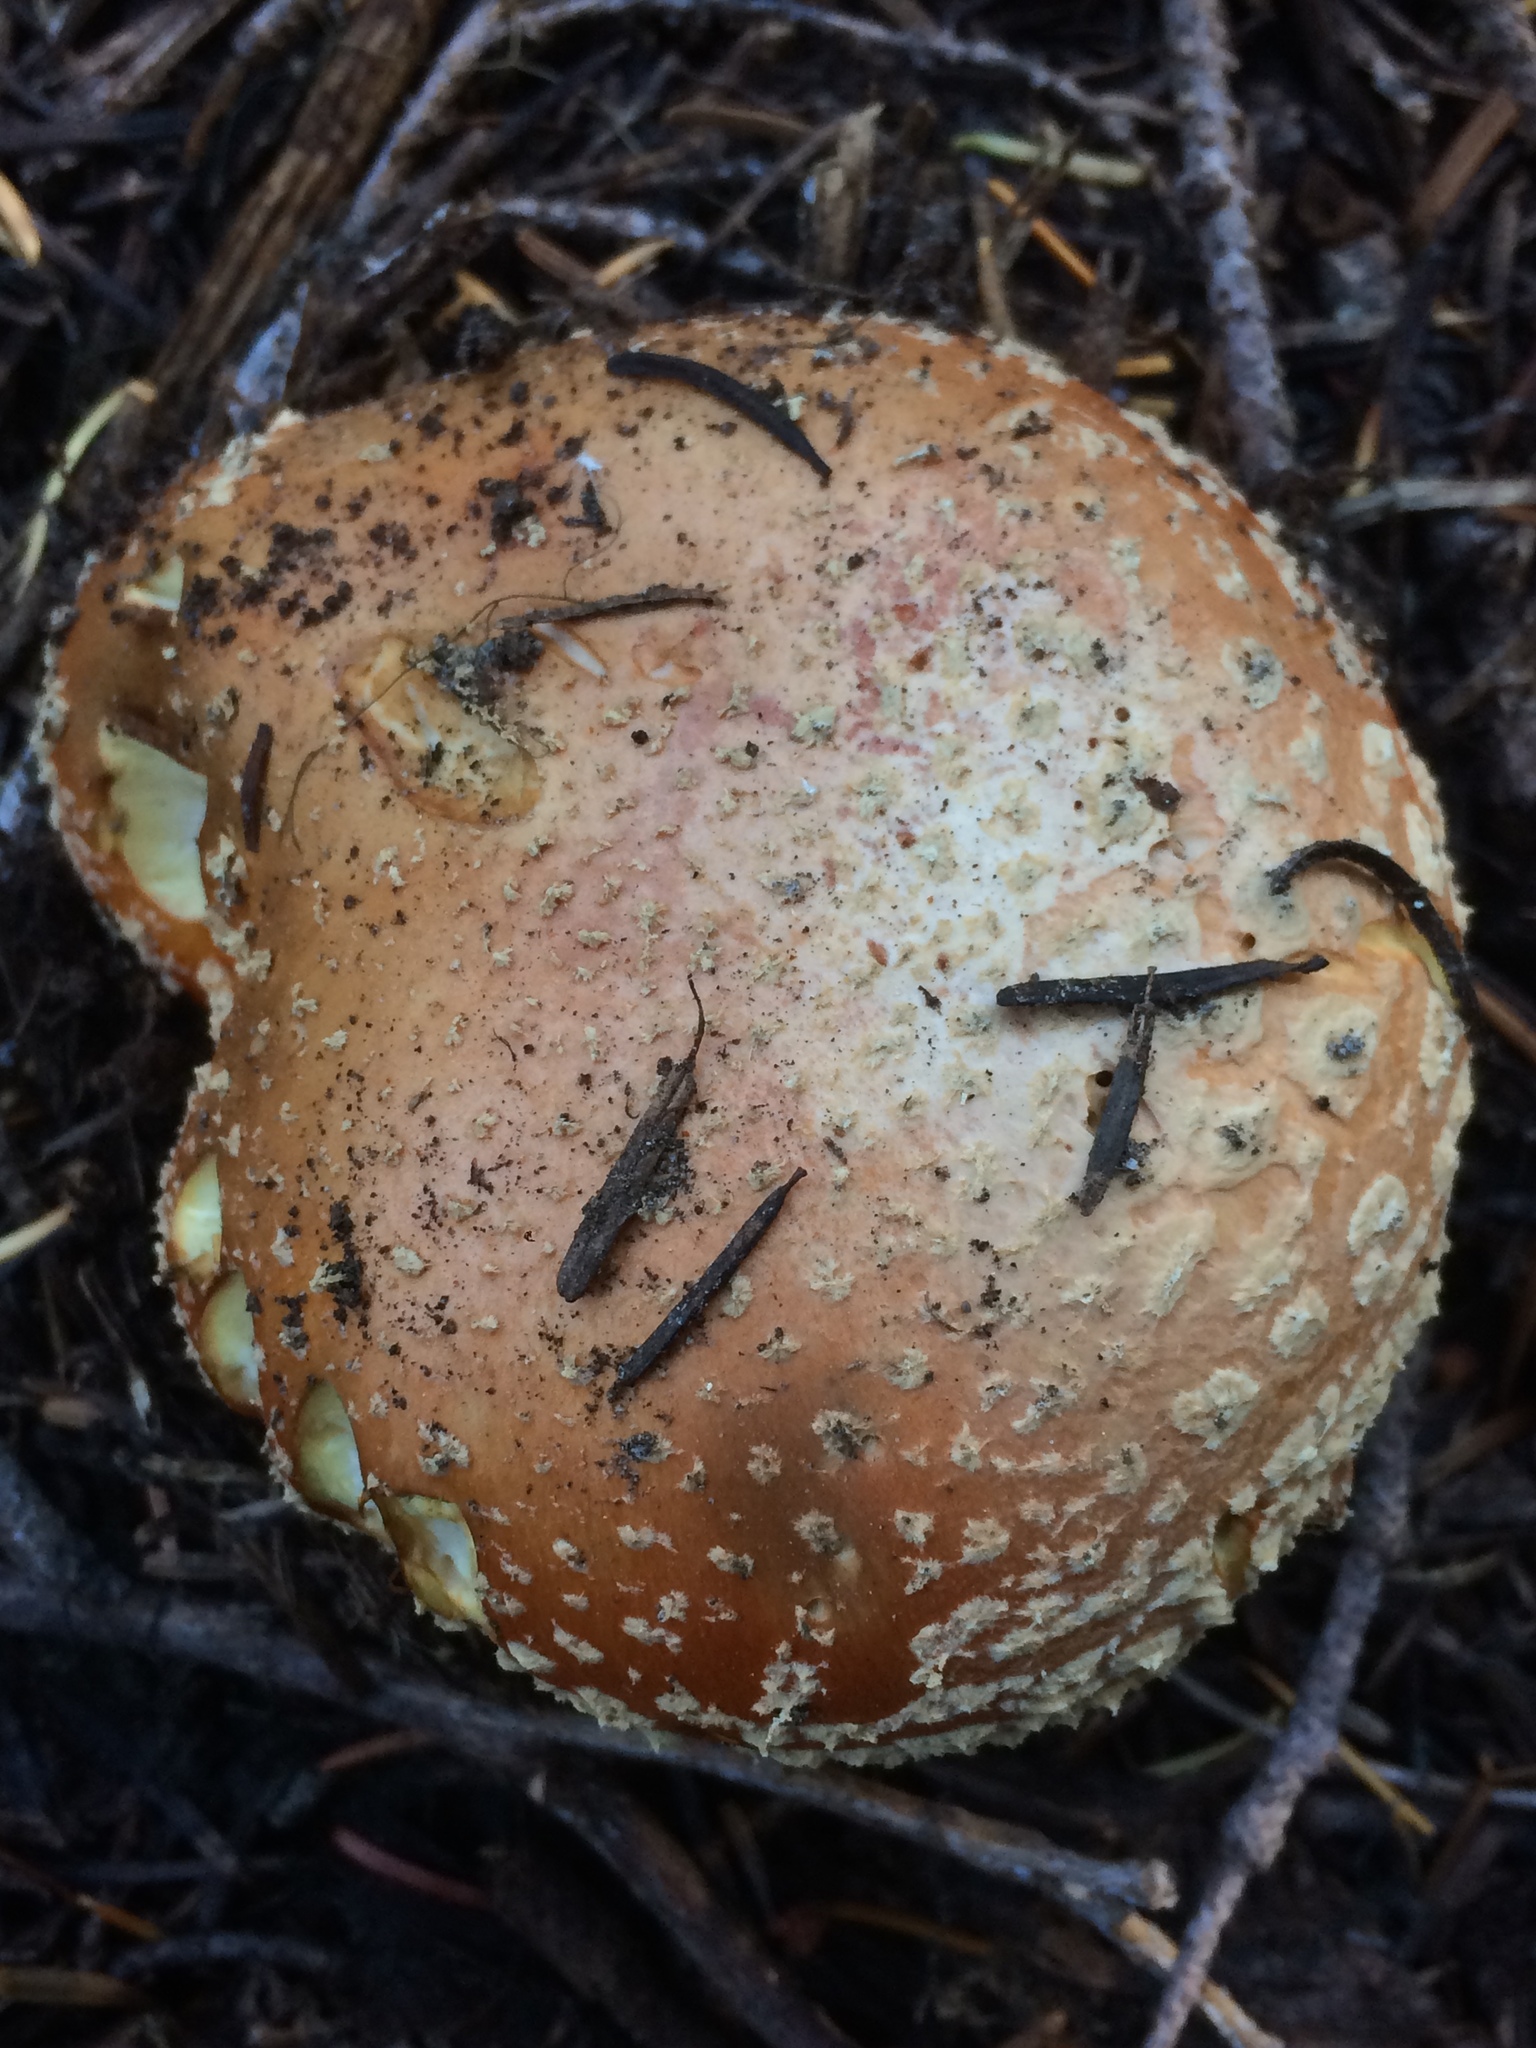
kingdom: Fungi
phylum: Basidiomycota
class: Agaricomycetes
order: Agaricales
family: Amanitaceae
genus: Amanita
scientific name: Amanita muscaria
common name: Fly agaric
